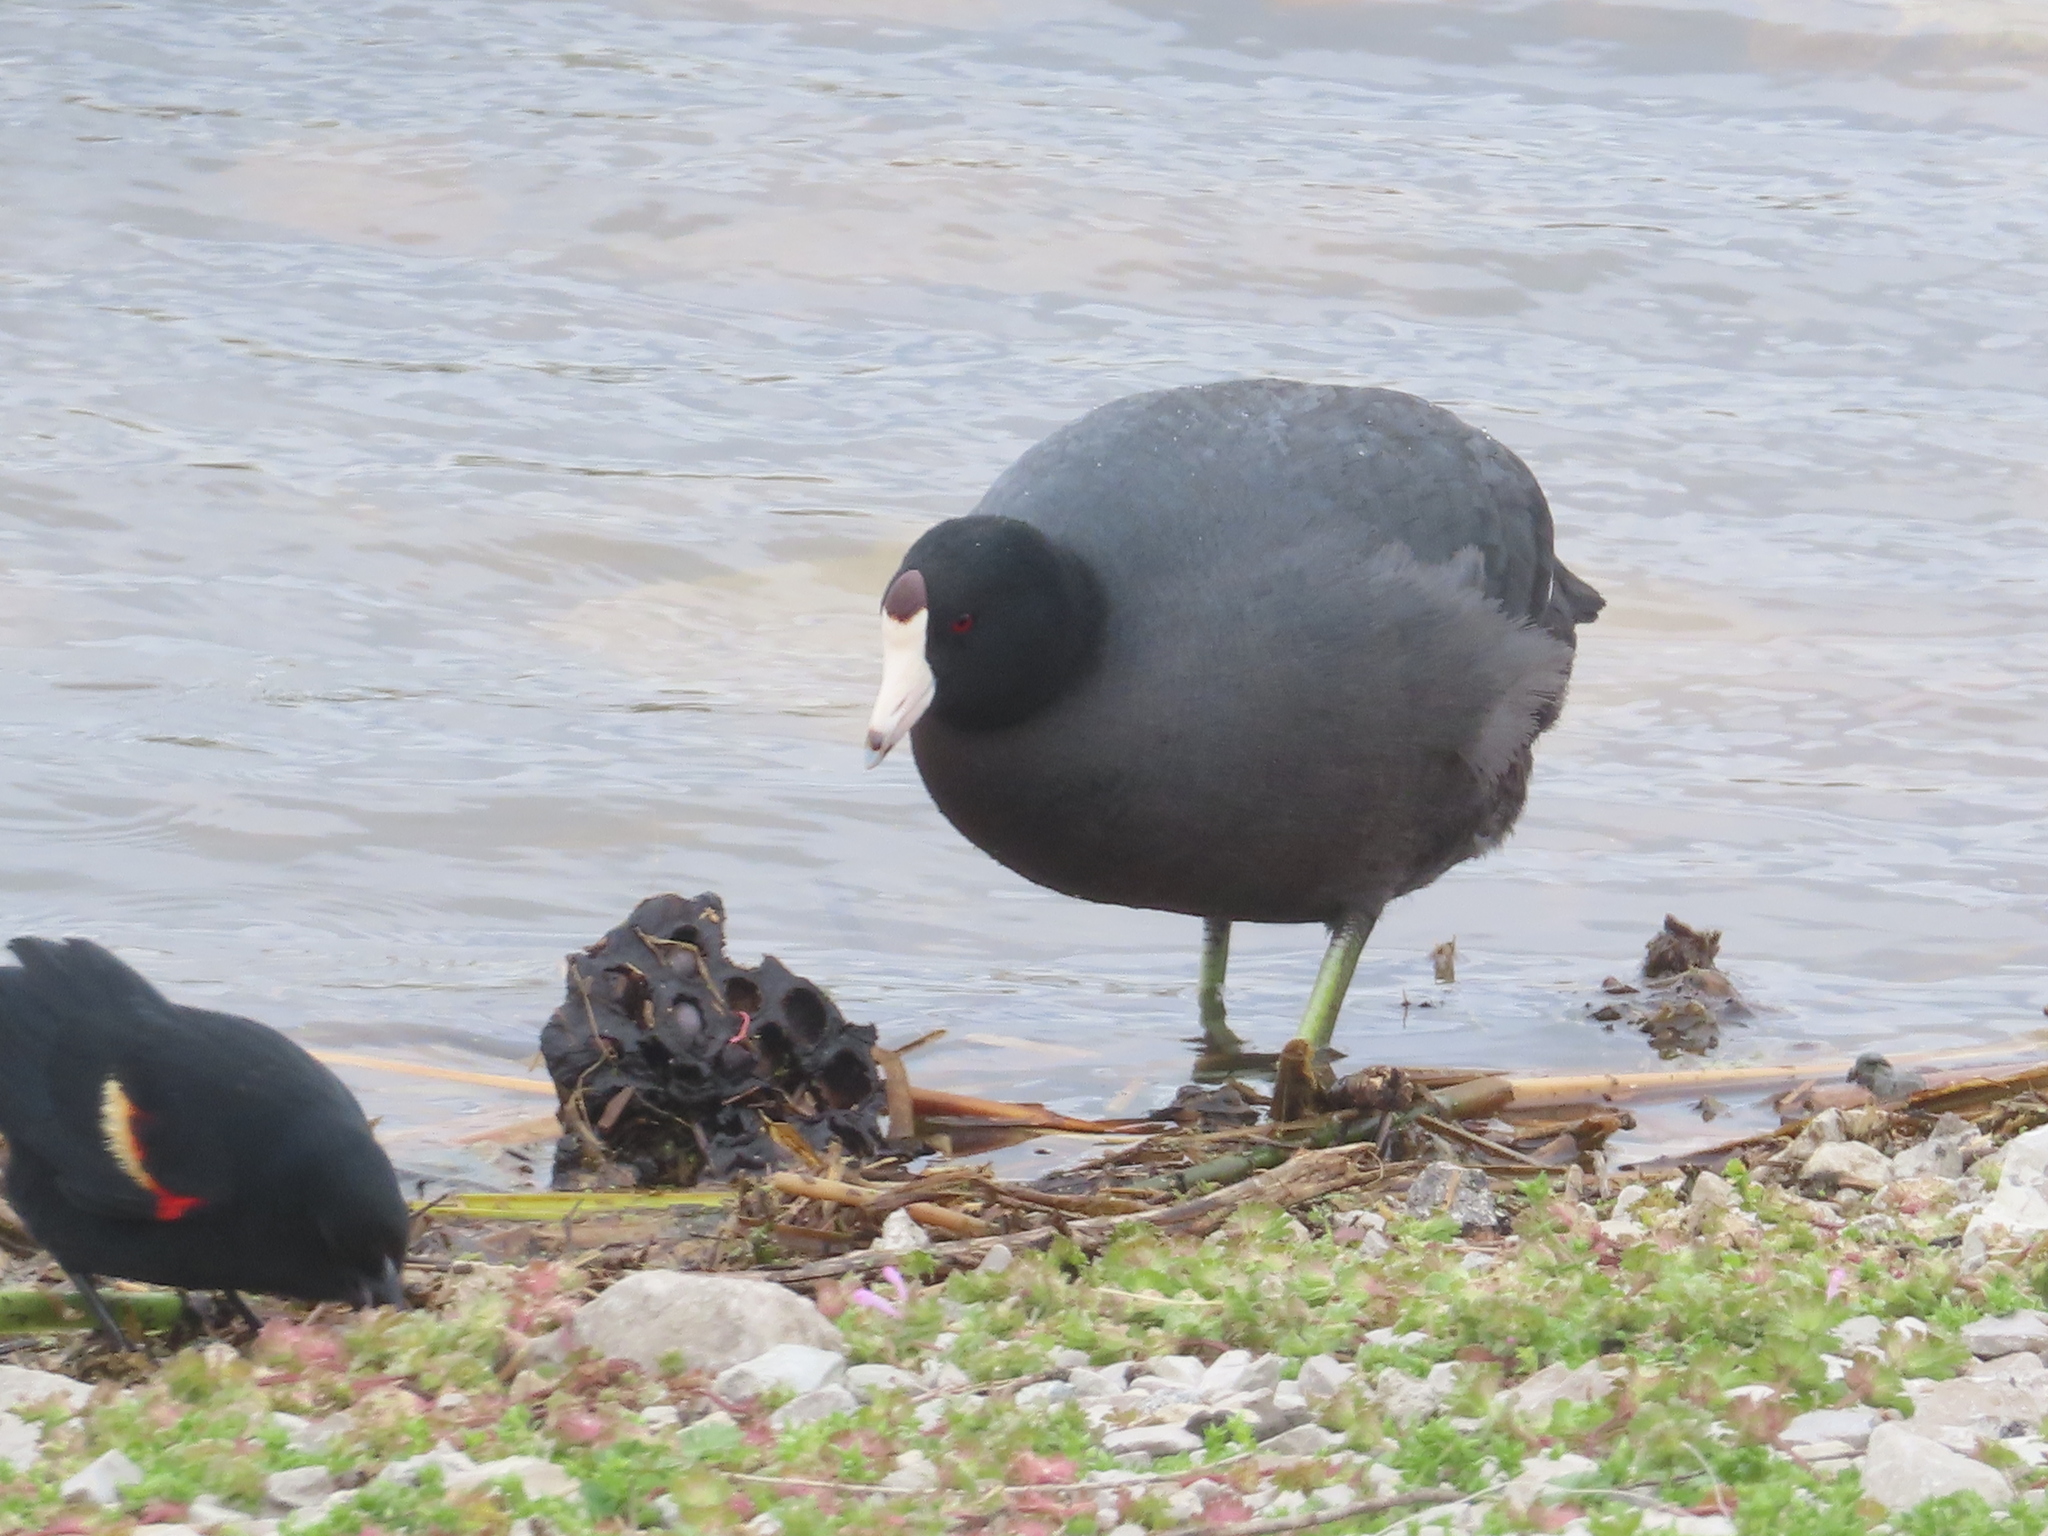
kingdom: Animalia
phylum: Chordata
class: Aves
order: Gruiformes
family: Rallidae
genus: Fulica
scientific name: Fulica americana
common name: American coot
